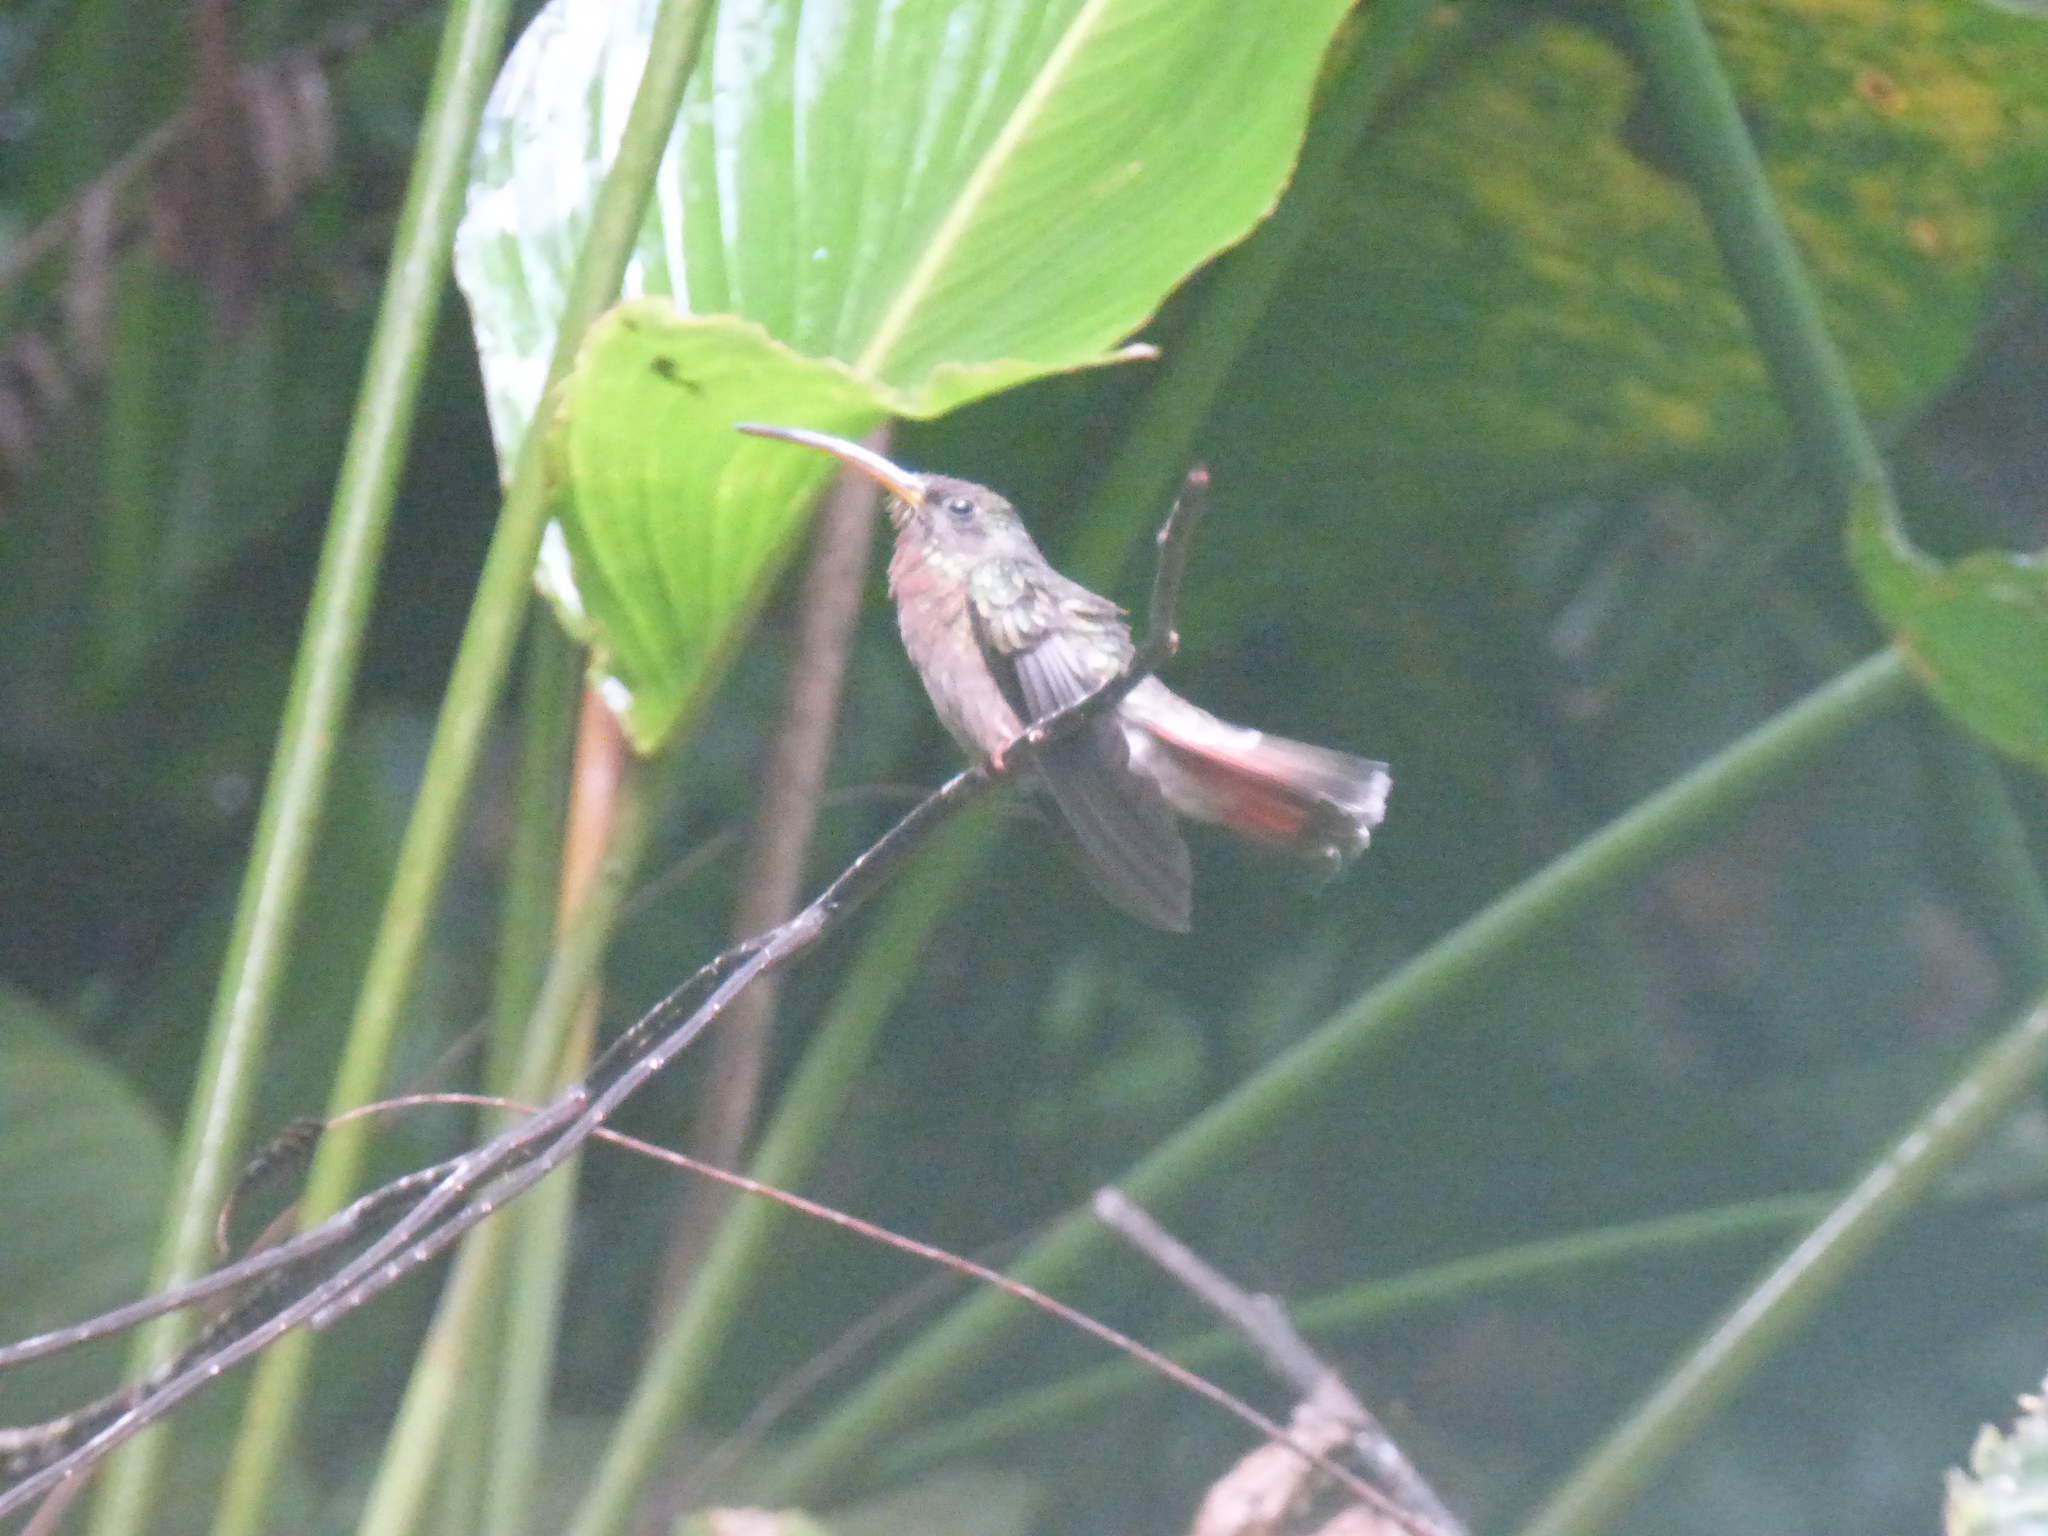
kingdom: Animalia
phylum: Chordata
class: Aves
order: Apodiformes
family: Trochilidae
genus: Glaucis
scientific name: Glaucis hirsutus
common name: Rufous-breasted hermit
